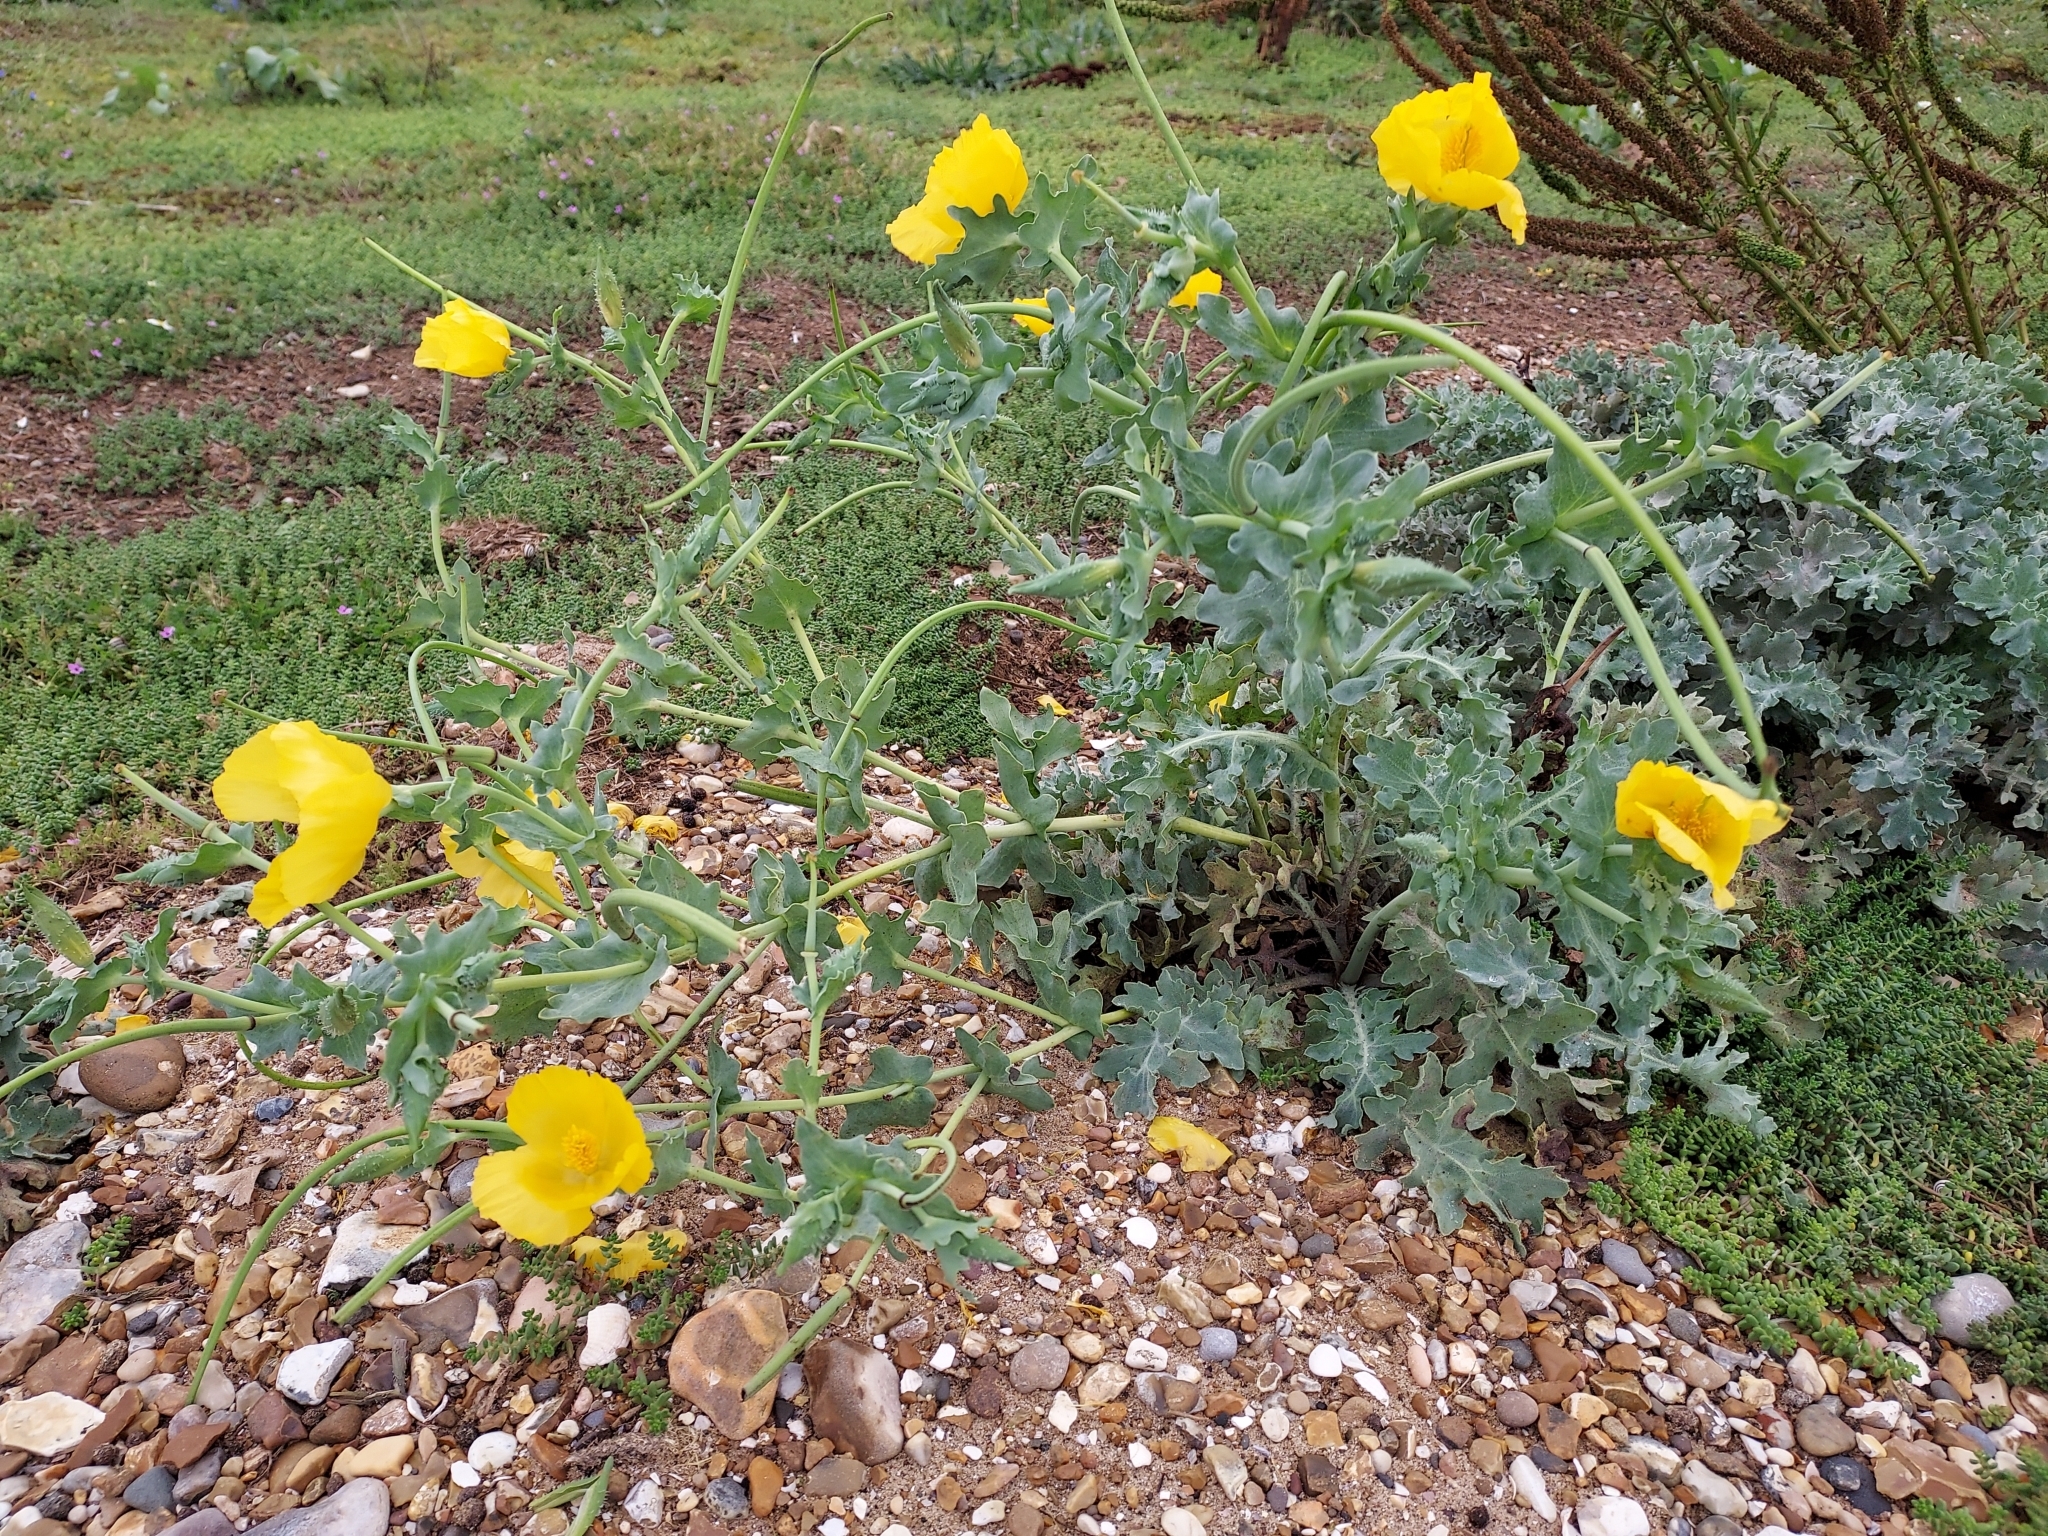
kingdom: Plantae
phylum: Tracheophyta
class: Magnoliopsida
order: Ranunculales
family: Papaveraceae
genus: Glaucium
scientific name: Glaucium flavum
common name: Yellow horned-poppy
